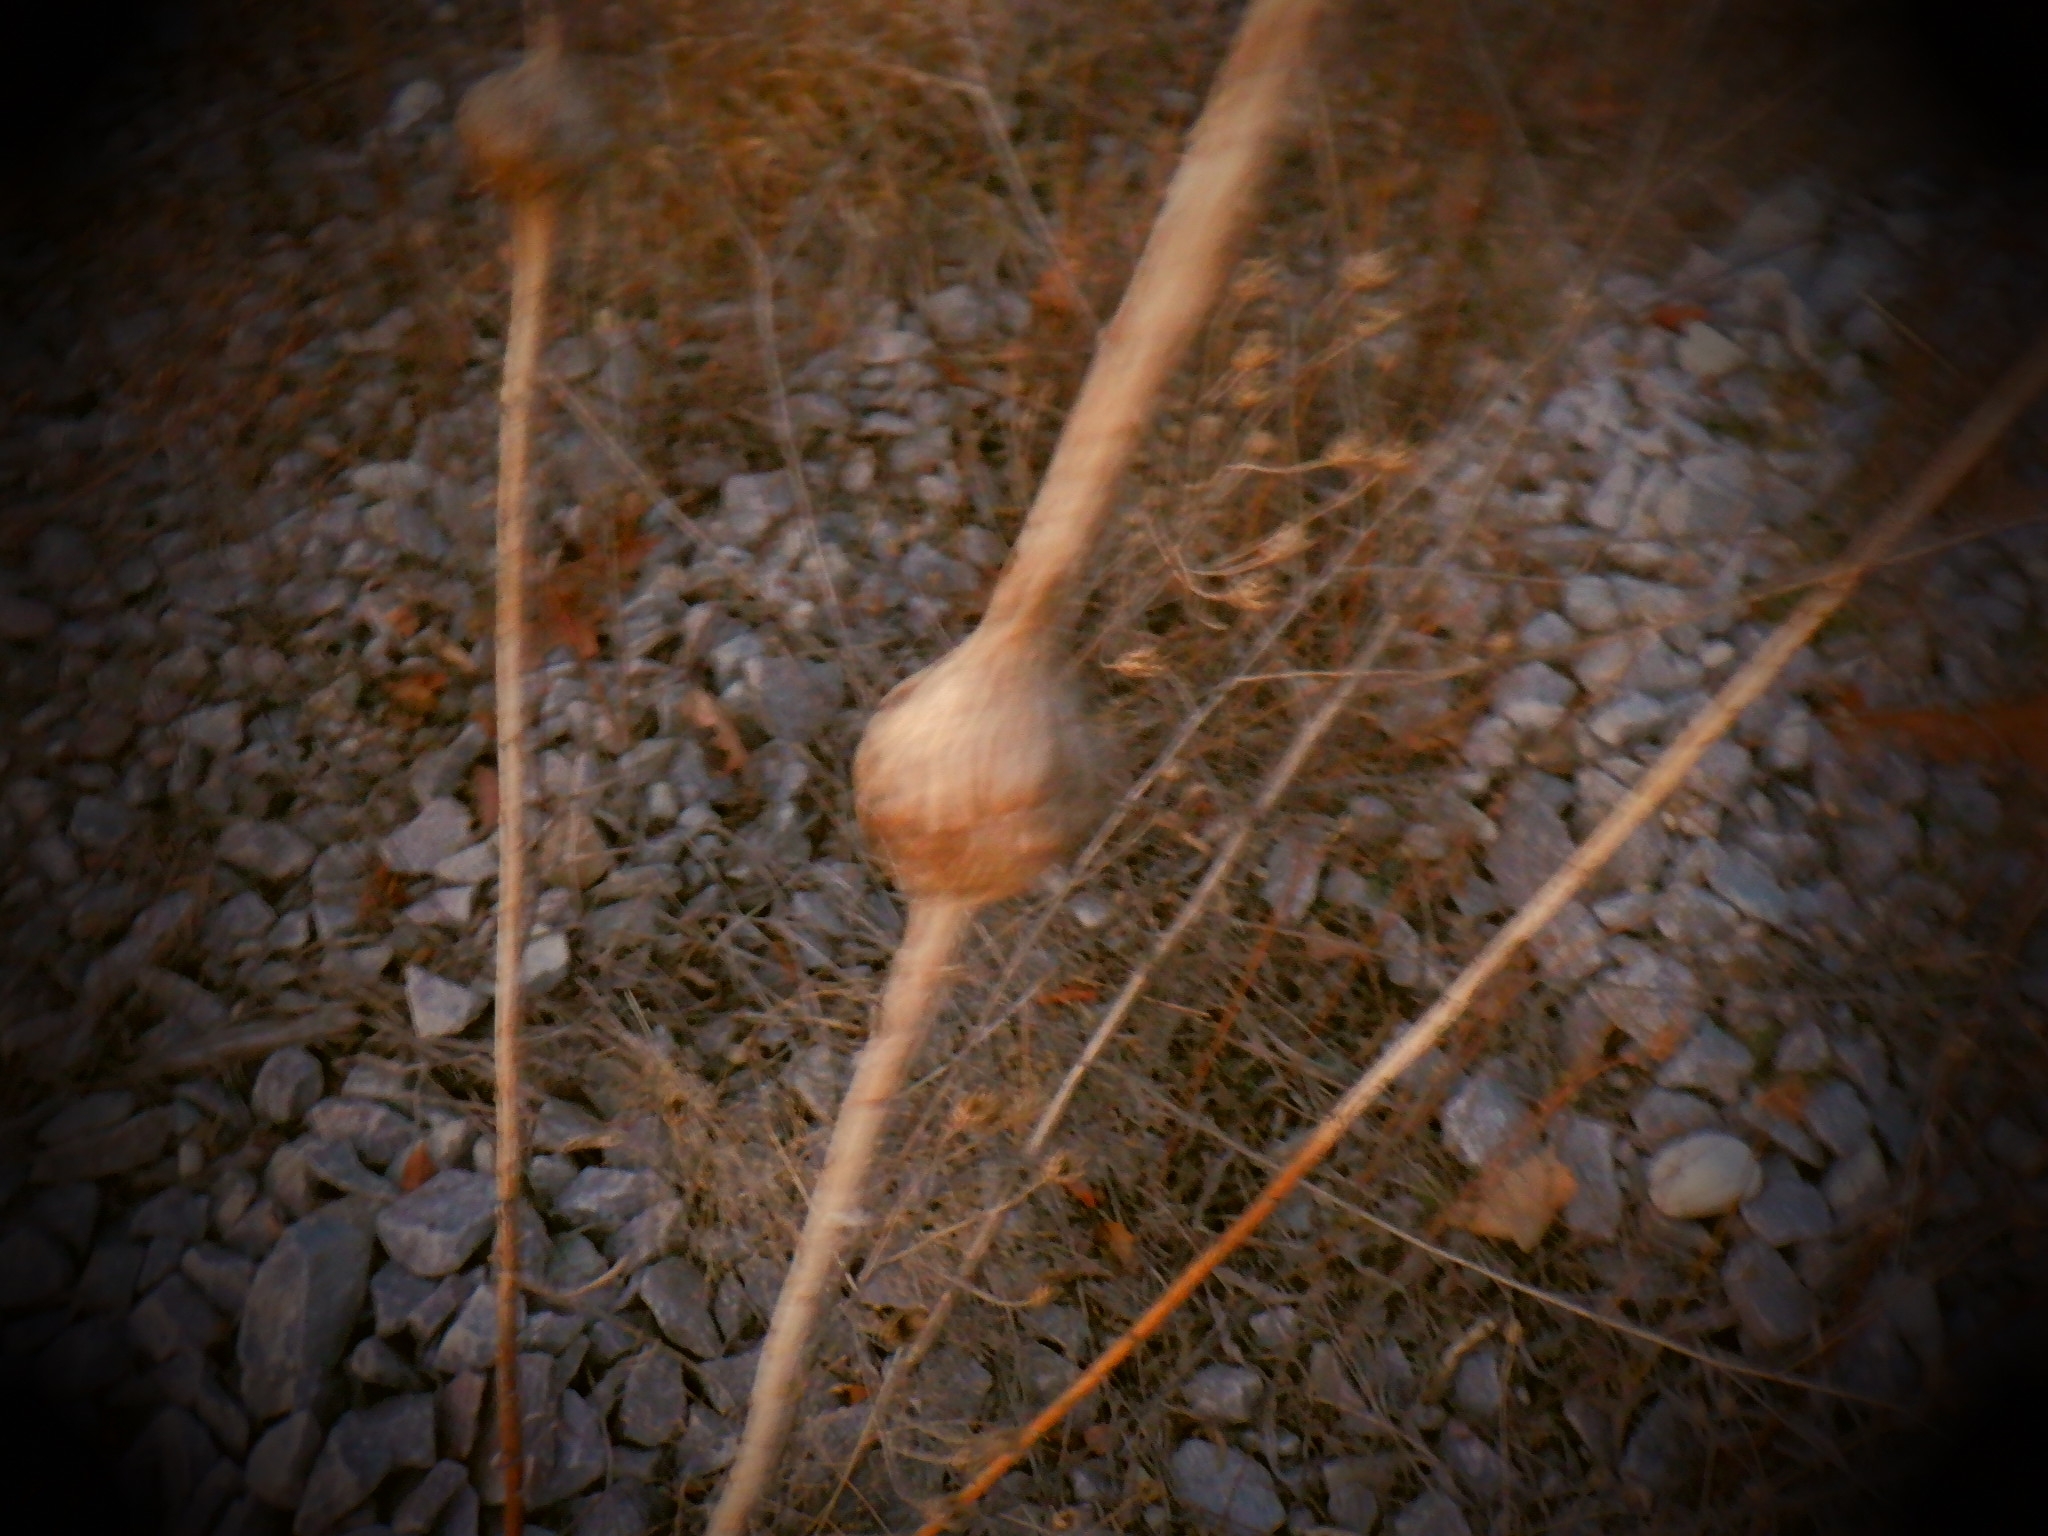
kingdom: Animalia
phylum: Arthropoda
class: Insecta
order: Diptera
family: Tephritidae
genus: Eurosta
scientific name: Eurosta solidaginis
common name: Goldenrod gall fly
